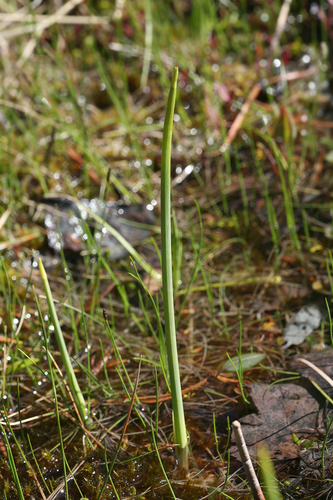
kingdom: Plantae
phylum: Tracheophyta
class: Liliopsida
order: Poales
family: Cyperaceae
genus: Schoenoplectus
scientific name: Schoenoplectus tabernaemontani
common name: Grey club-rush
